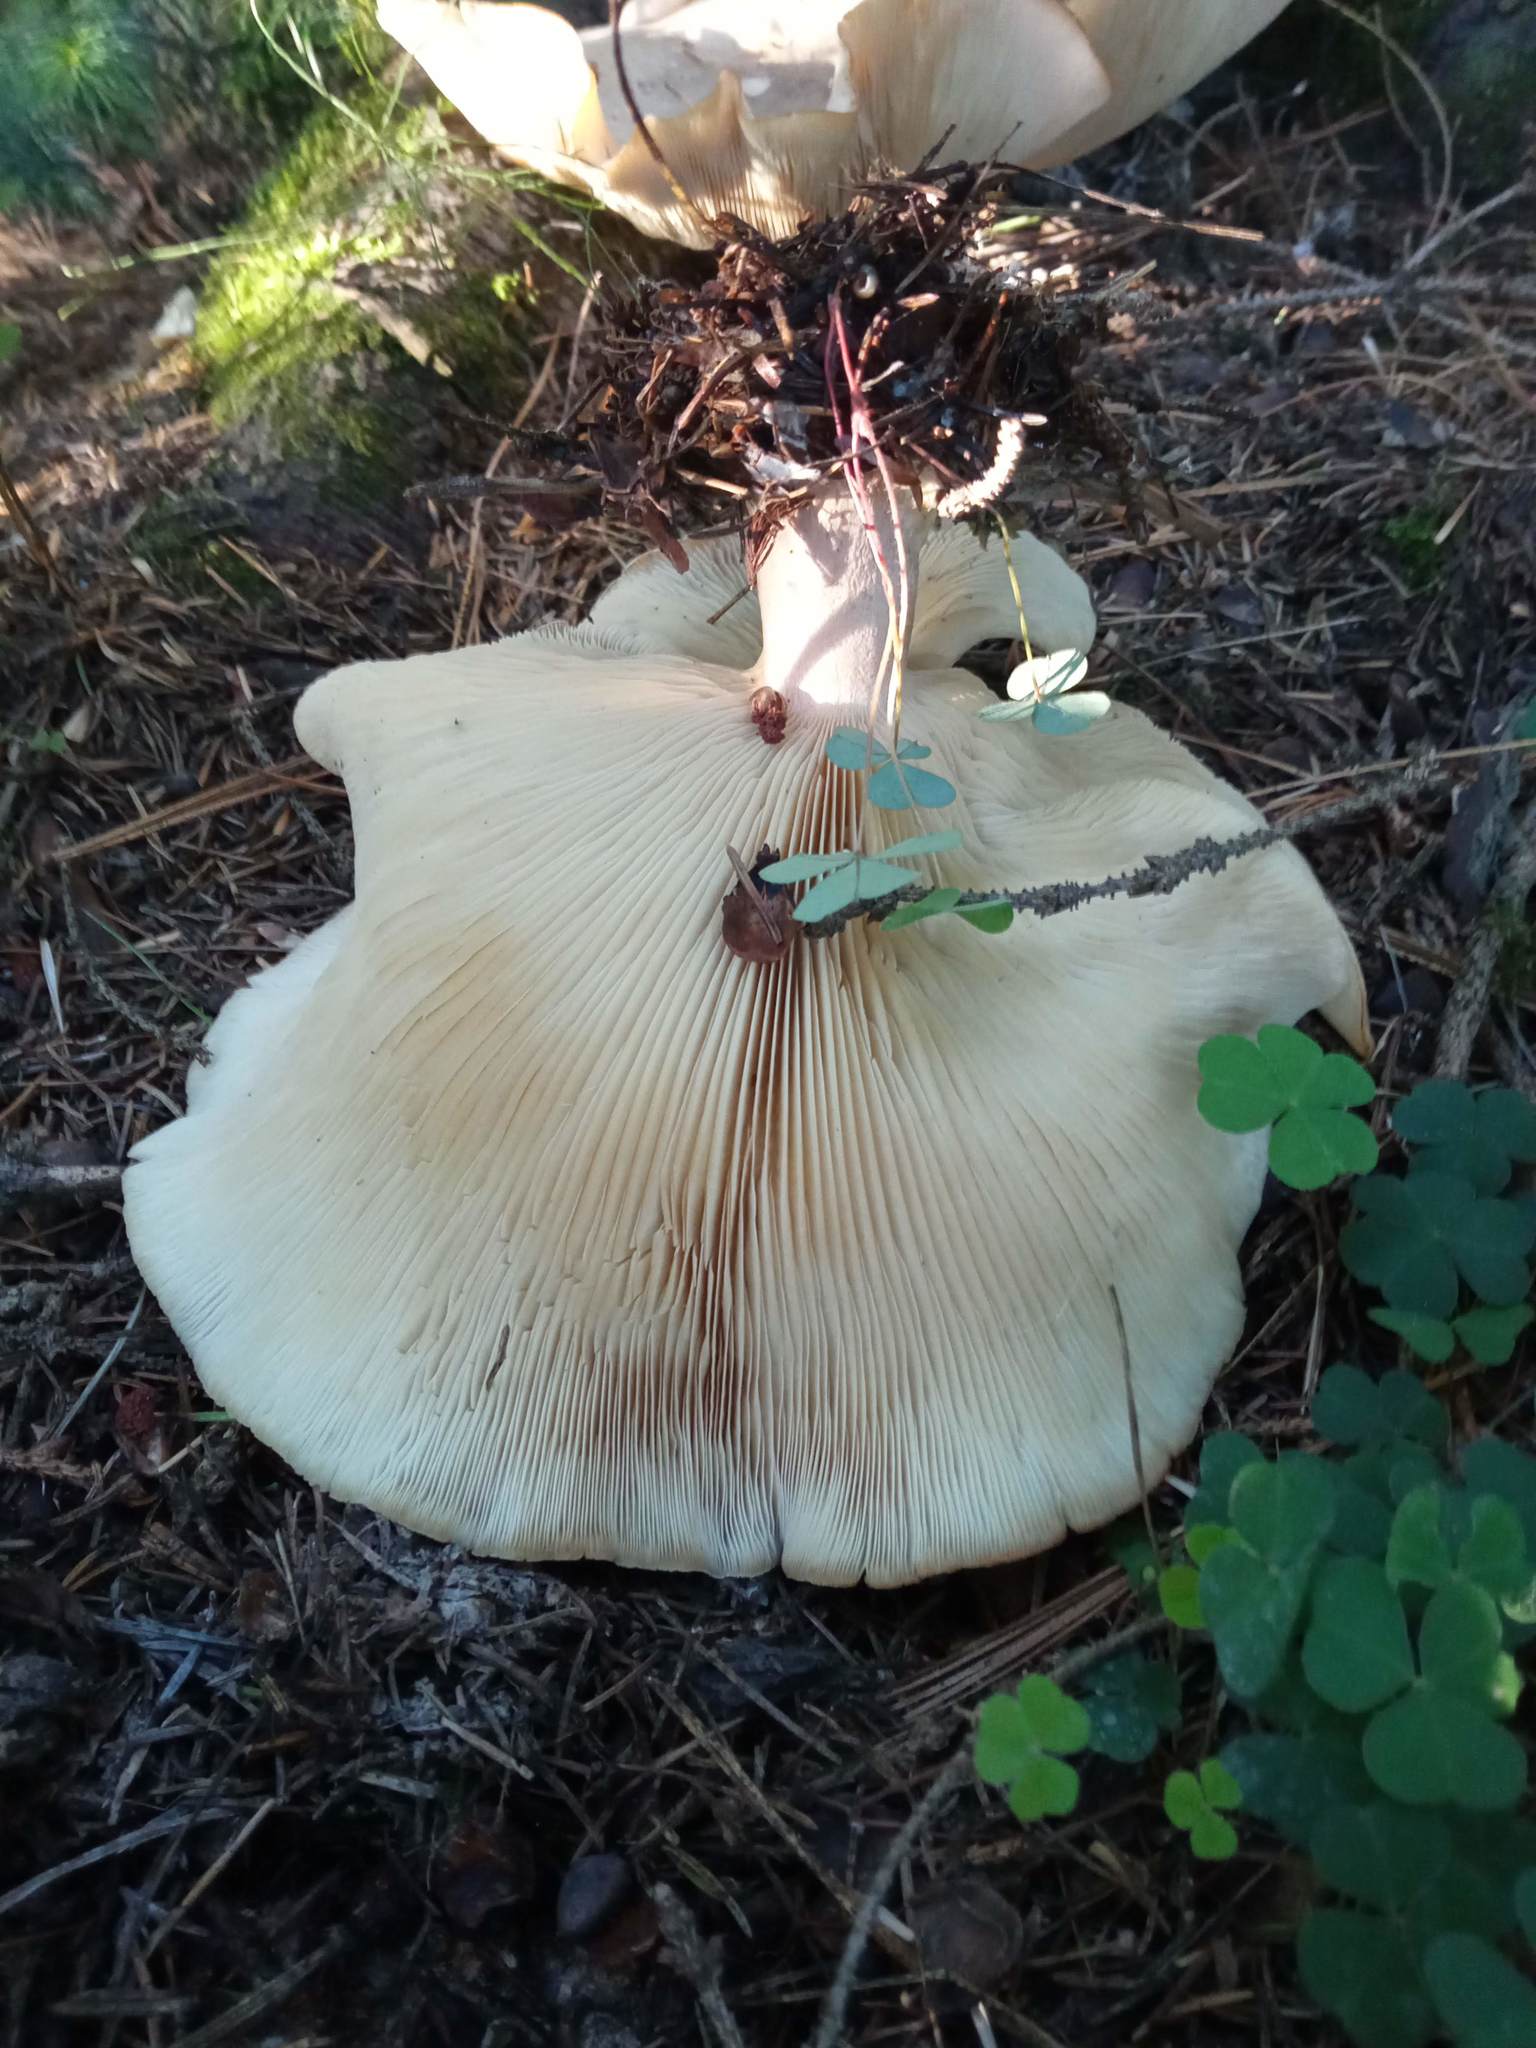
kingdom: Fungi
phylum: Basidiomycota
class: Agaricomycetes
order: Agaricales
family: Entolomataceae
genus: Clitopilus
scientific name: Clitopilus prunulus
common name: The miller
